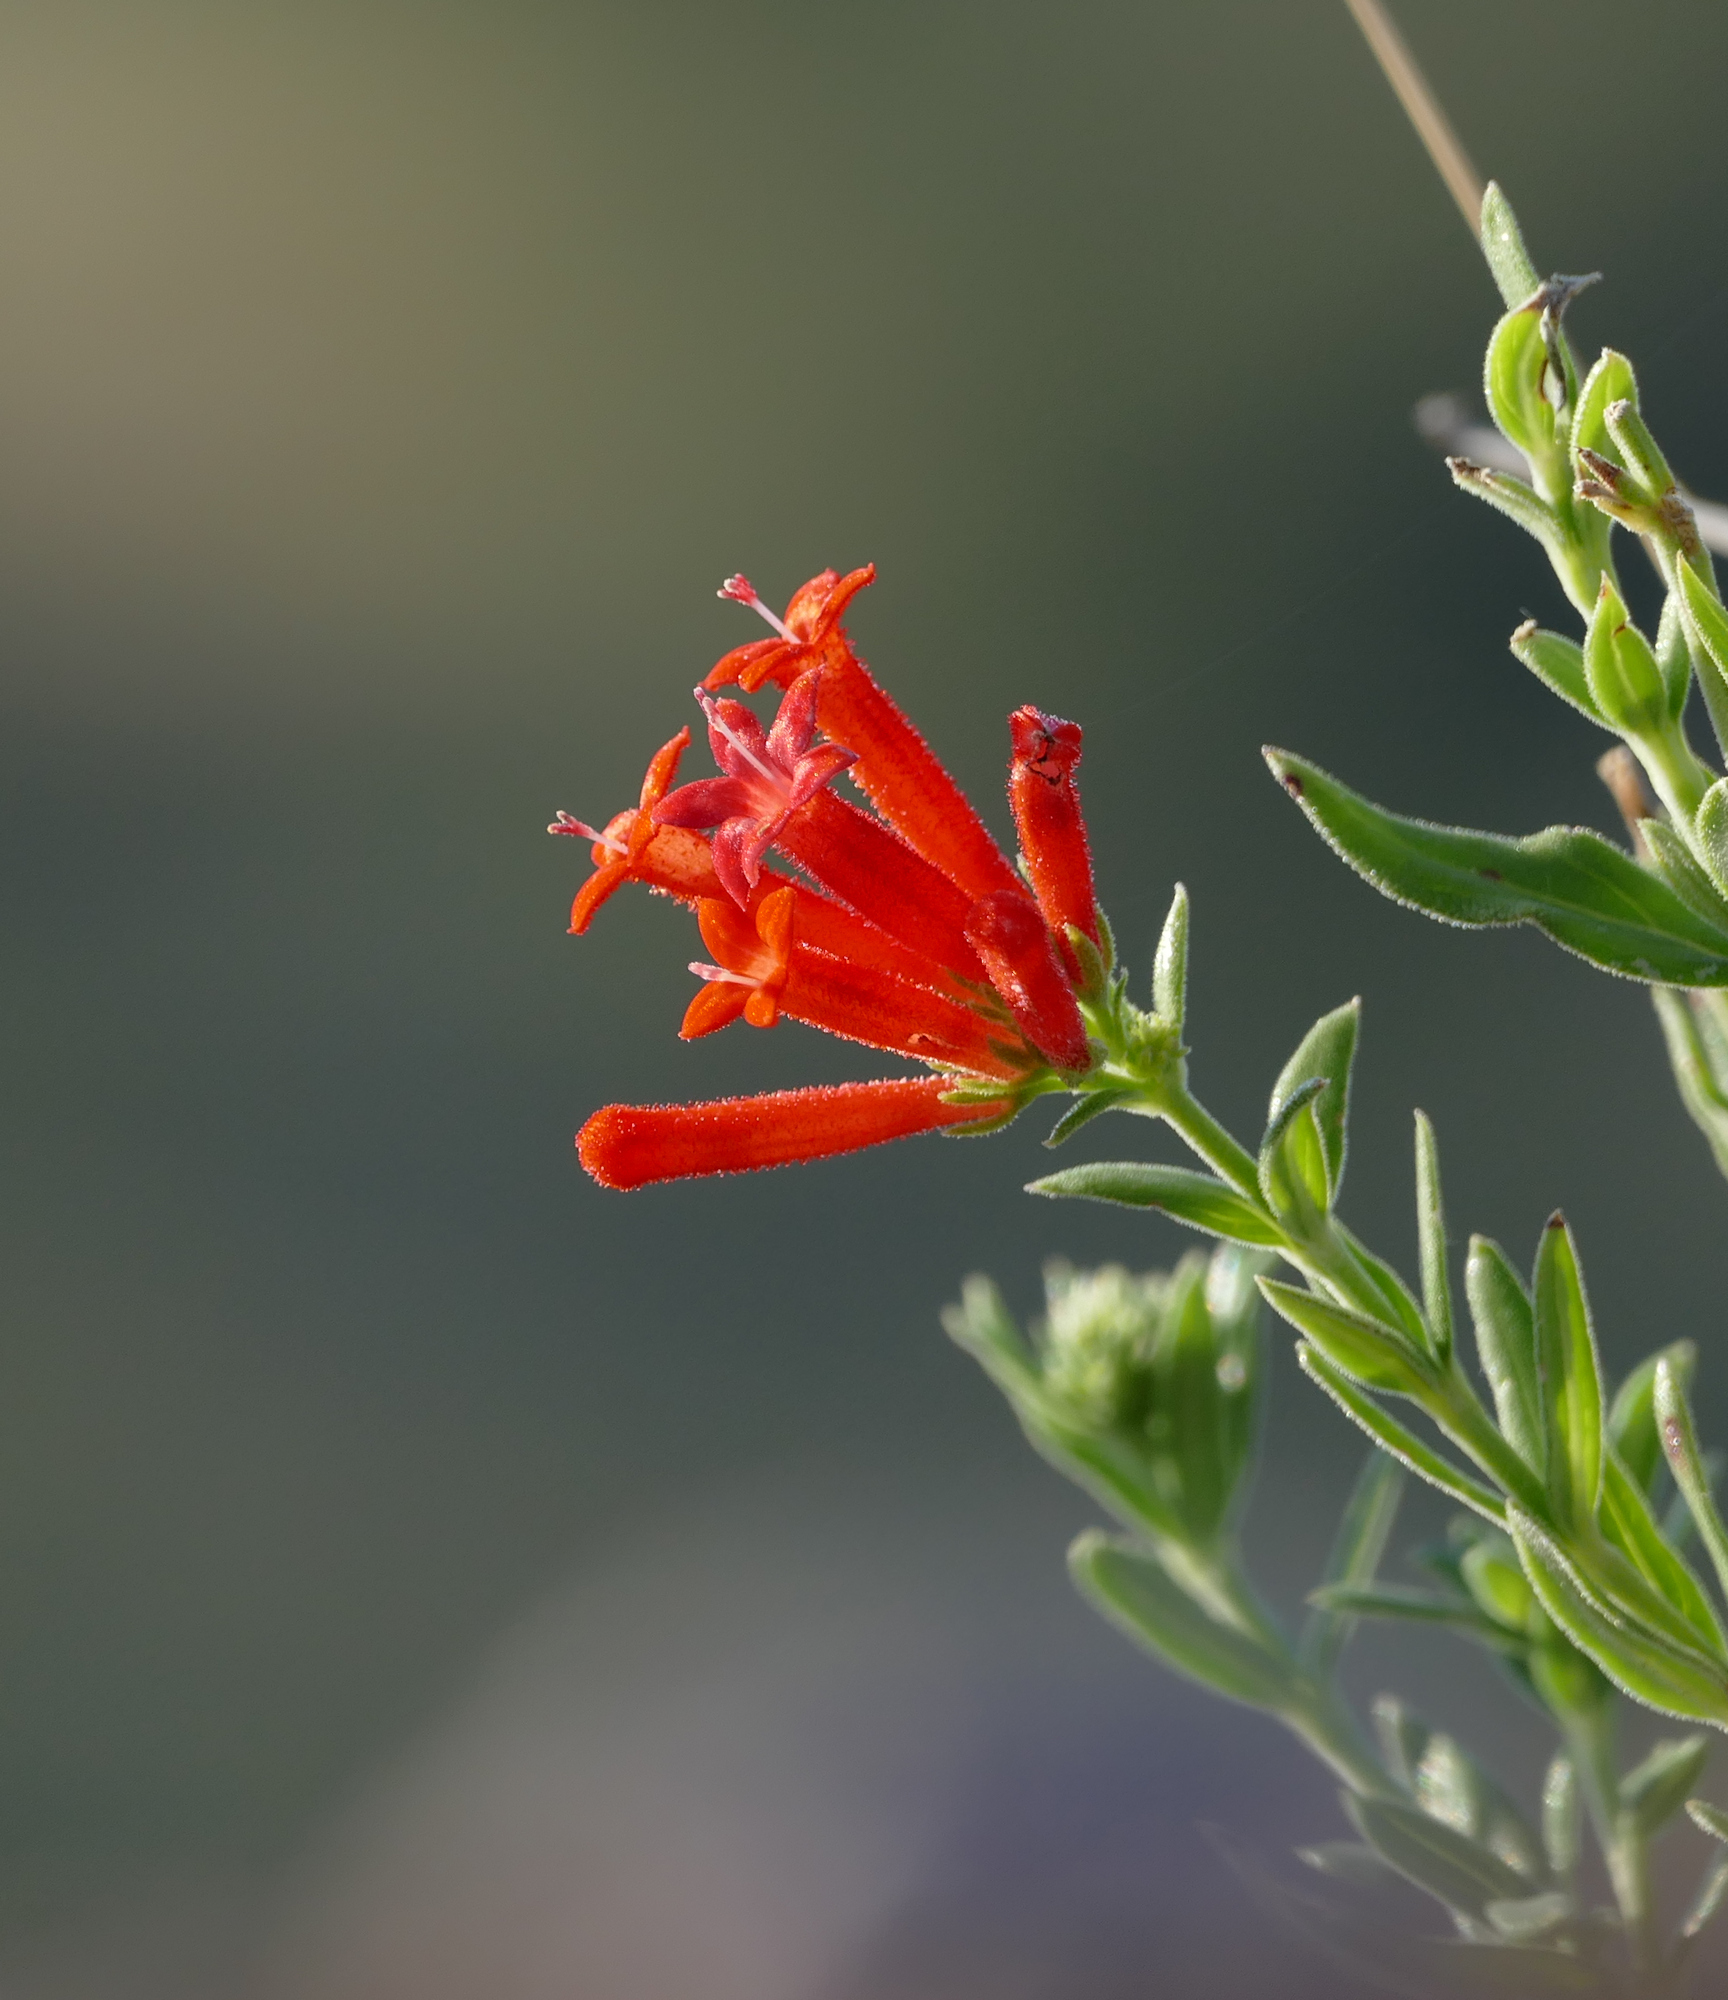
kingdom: Plantae
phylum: Tracheophyta
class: Magnoliopsida
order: Gentianales
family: Rubiaceae
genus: Bouvardia
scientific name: Bouvardia ternifolia
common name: Scarlet bouvardia
